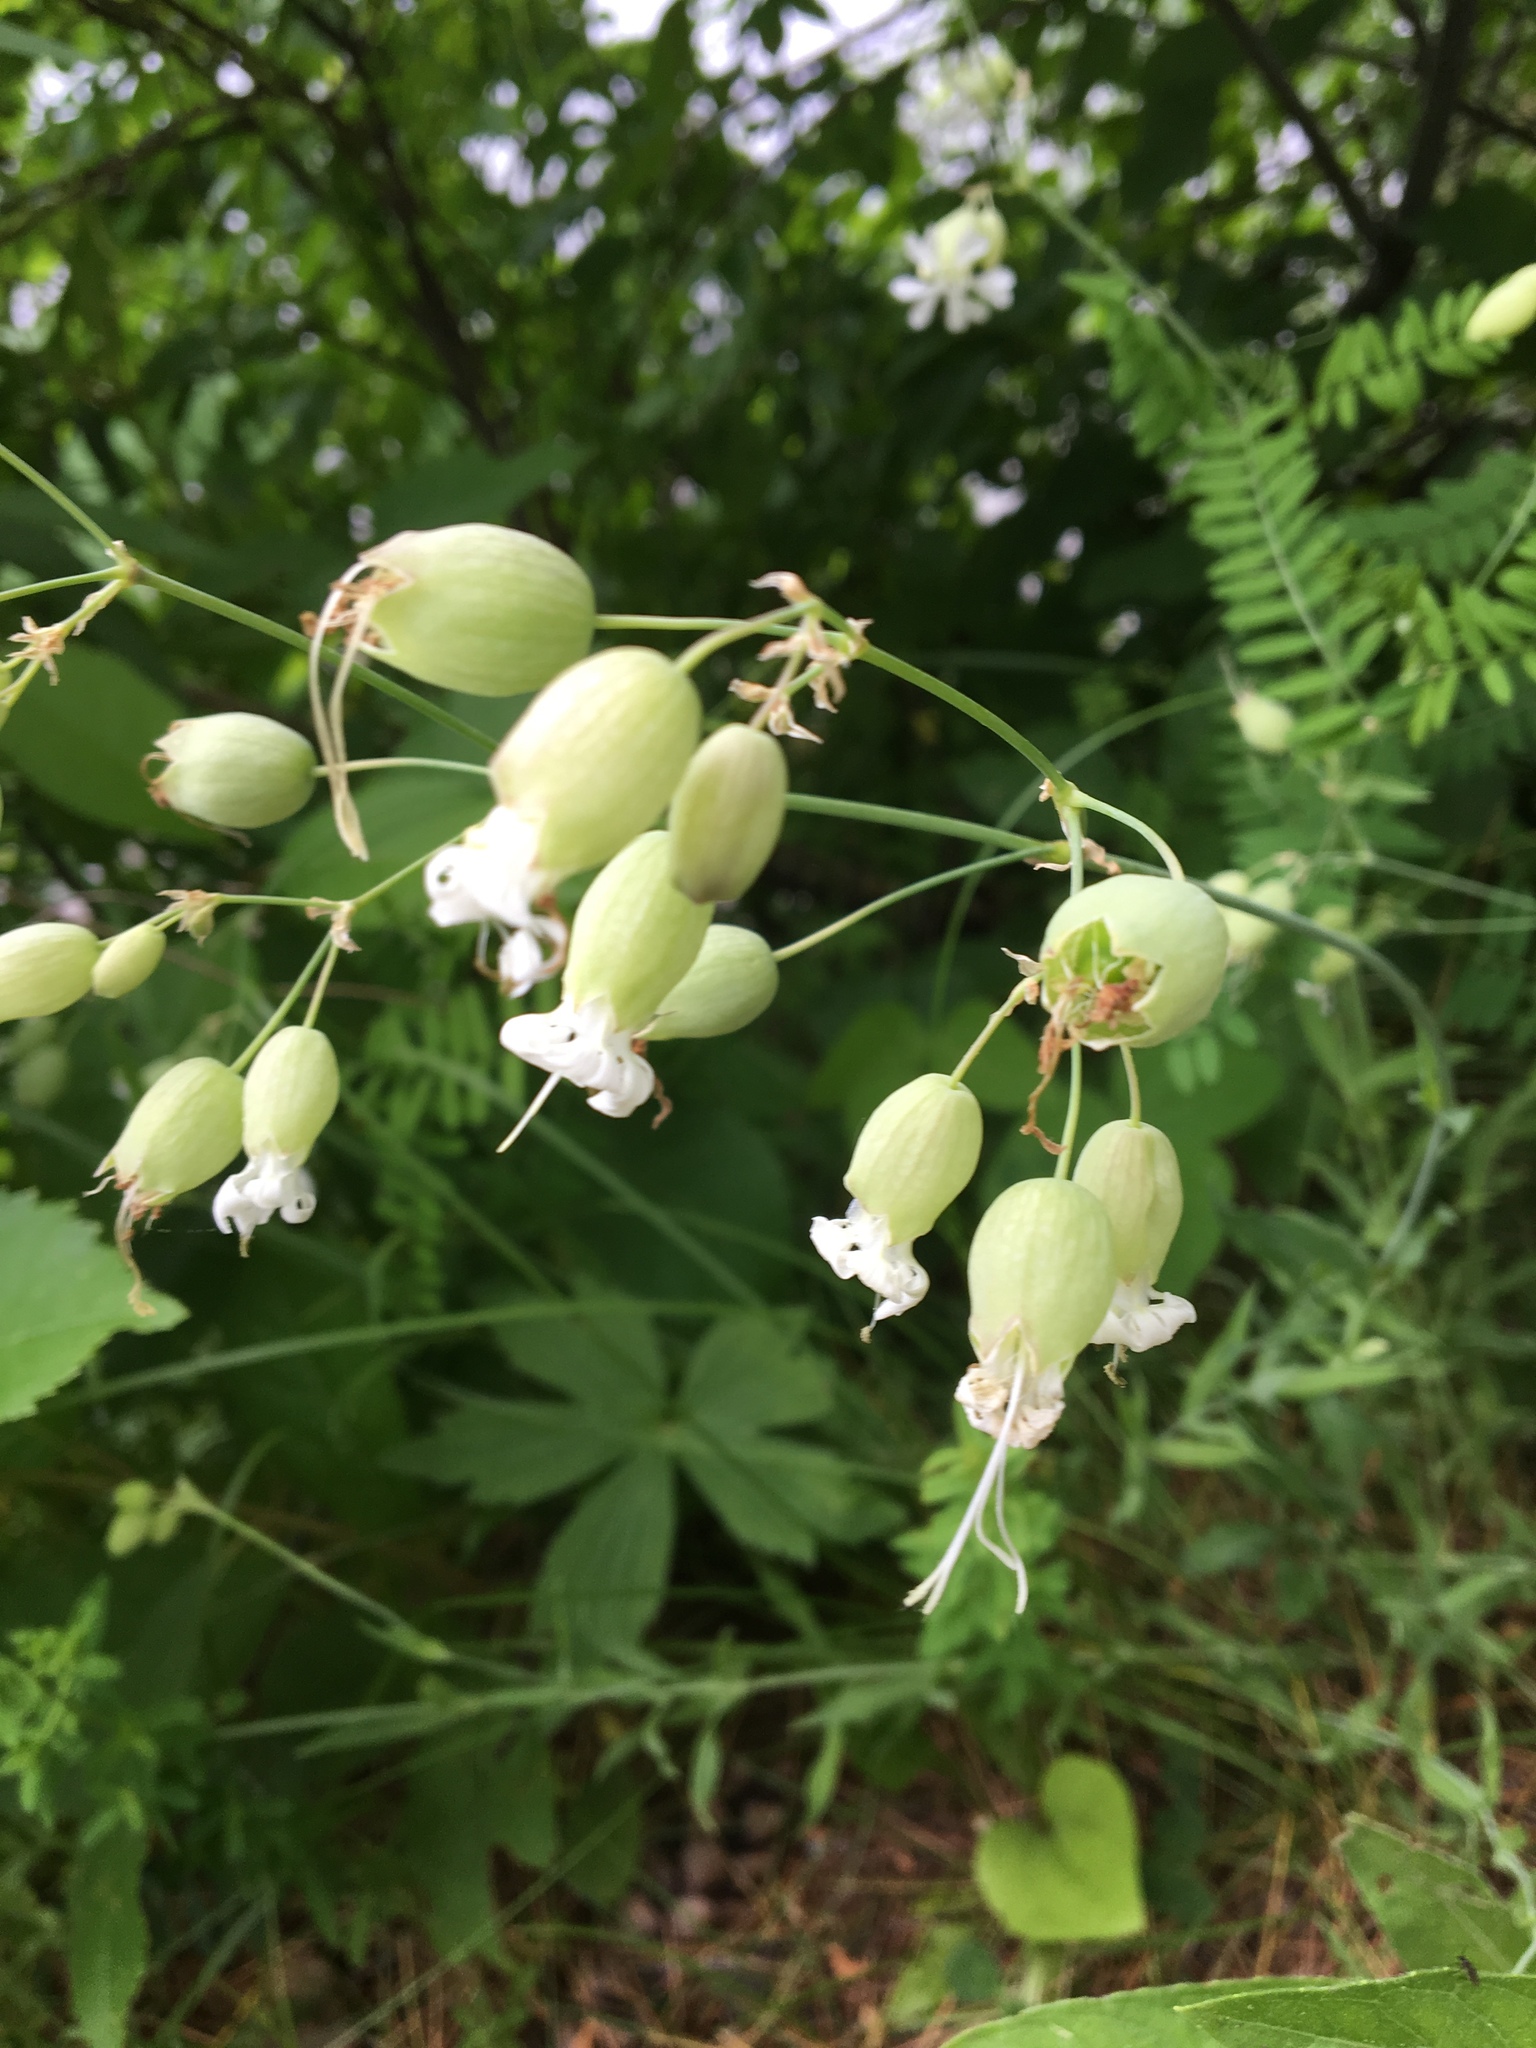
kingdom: Plantae
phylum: Tracheophyta
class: Magnoliopsida
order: Caryophyllales
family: Caryophyllaceae
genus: Silene
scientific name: Silene vulgaris
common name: Bladder campion
